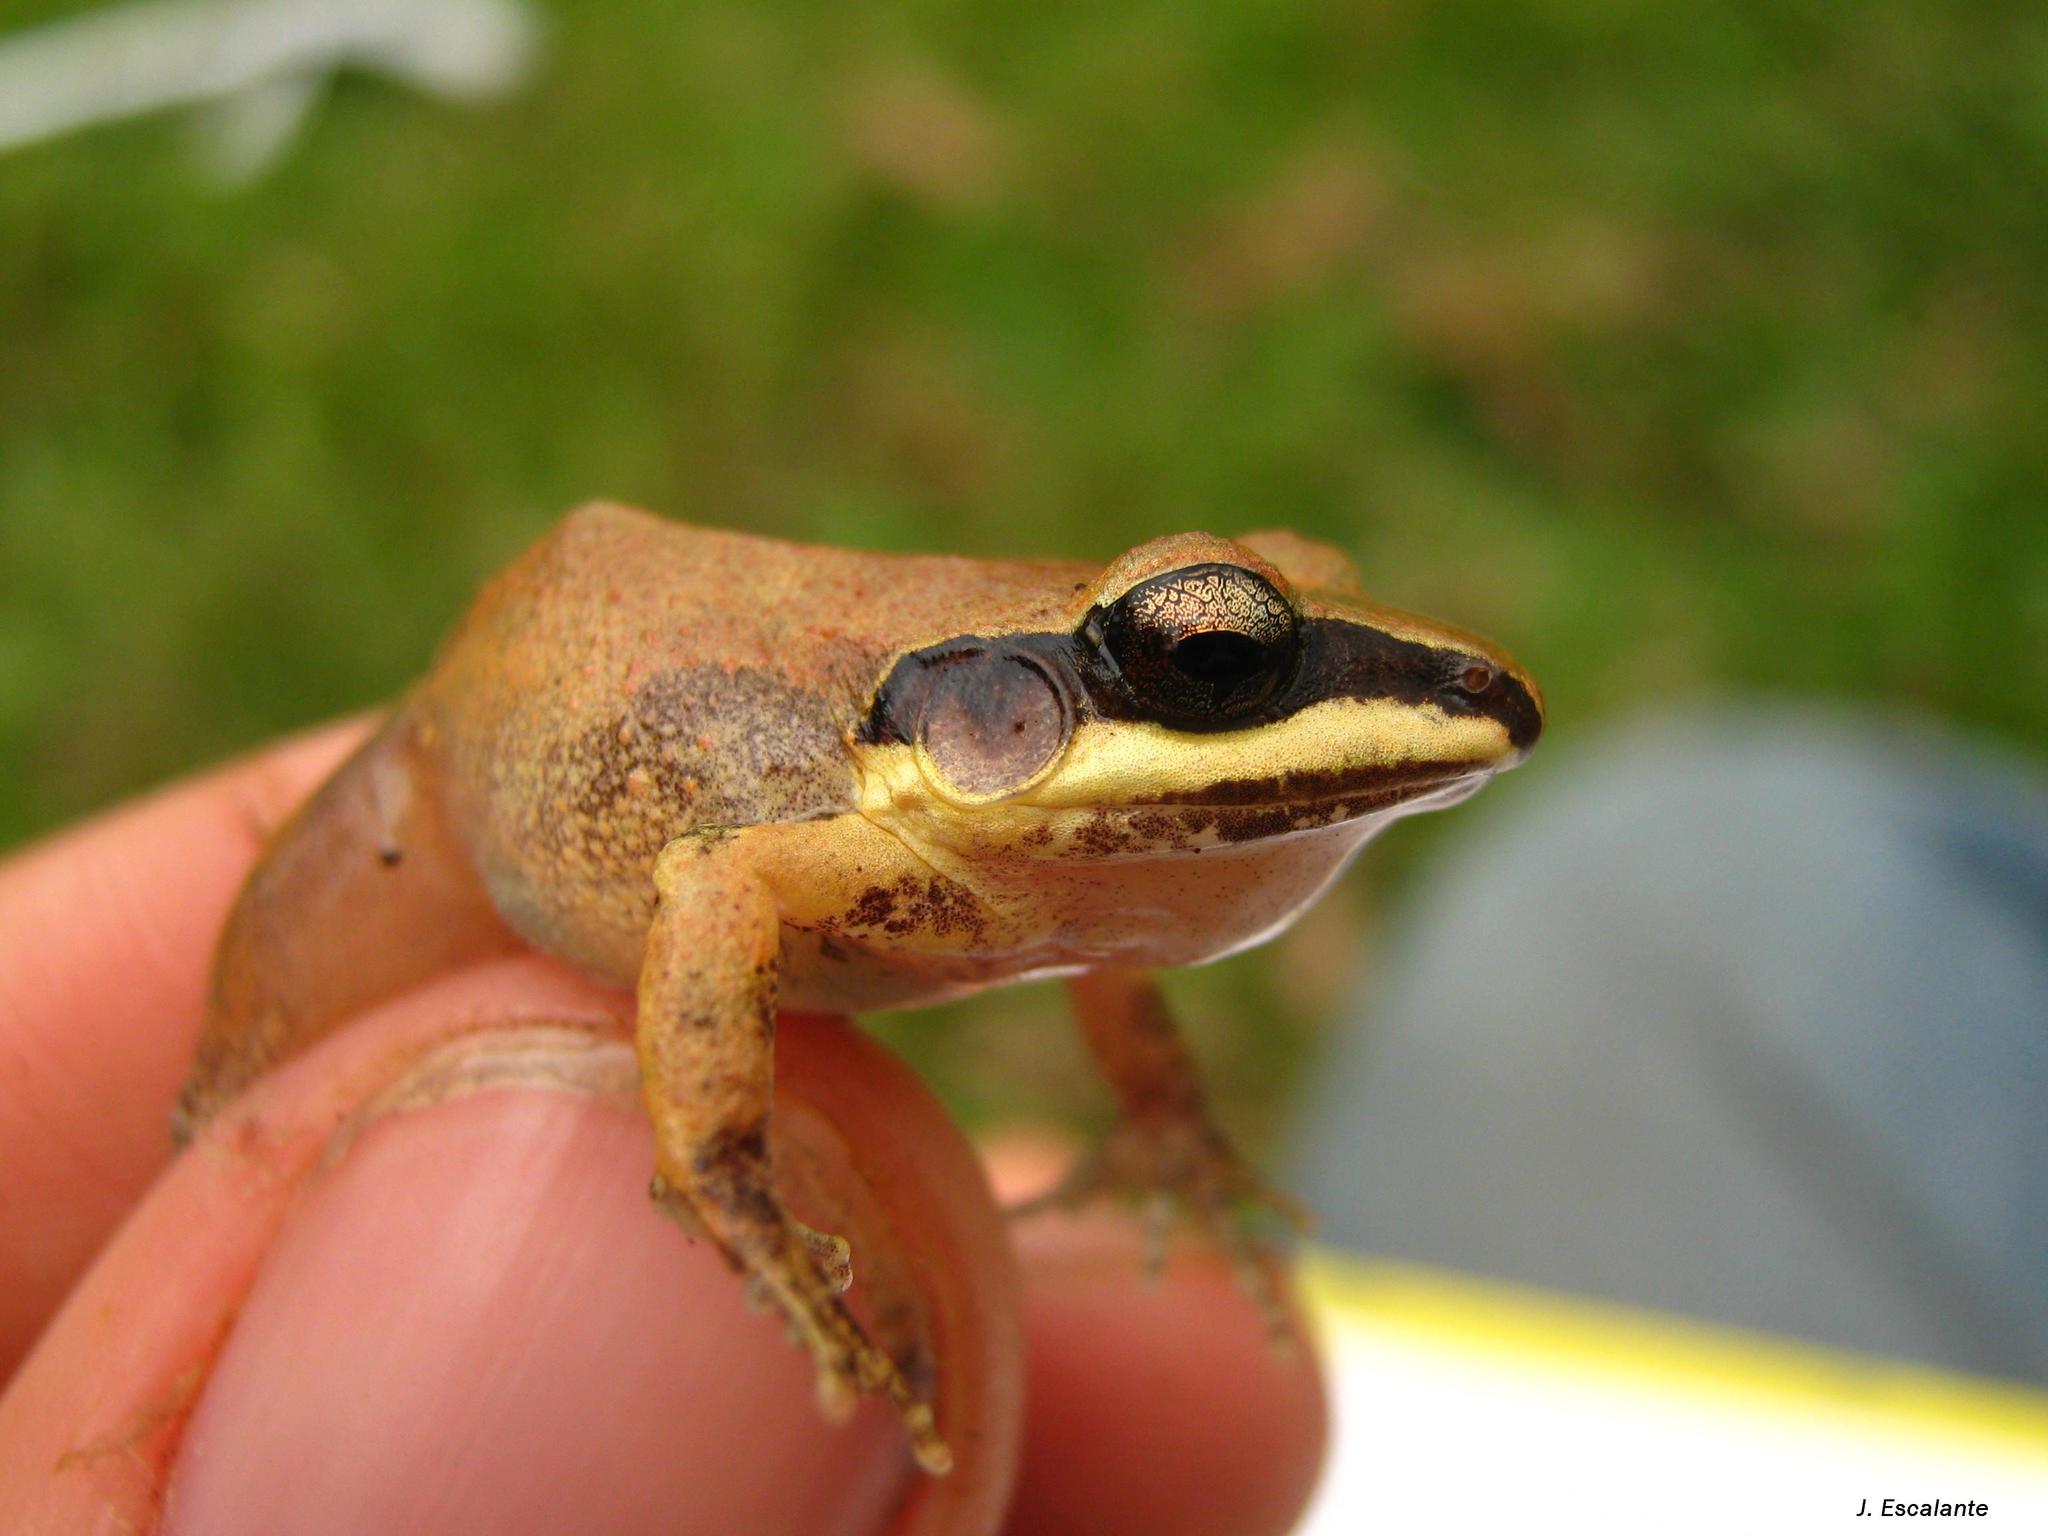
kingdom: Animalia
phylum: Chordata
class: Amphibia
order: Anura
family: Craugastoridae
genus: Craugastor
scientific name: Craugastor loki
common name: Common leaf-litter frog
